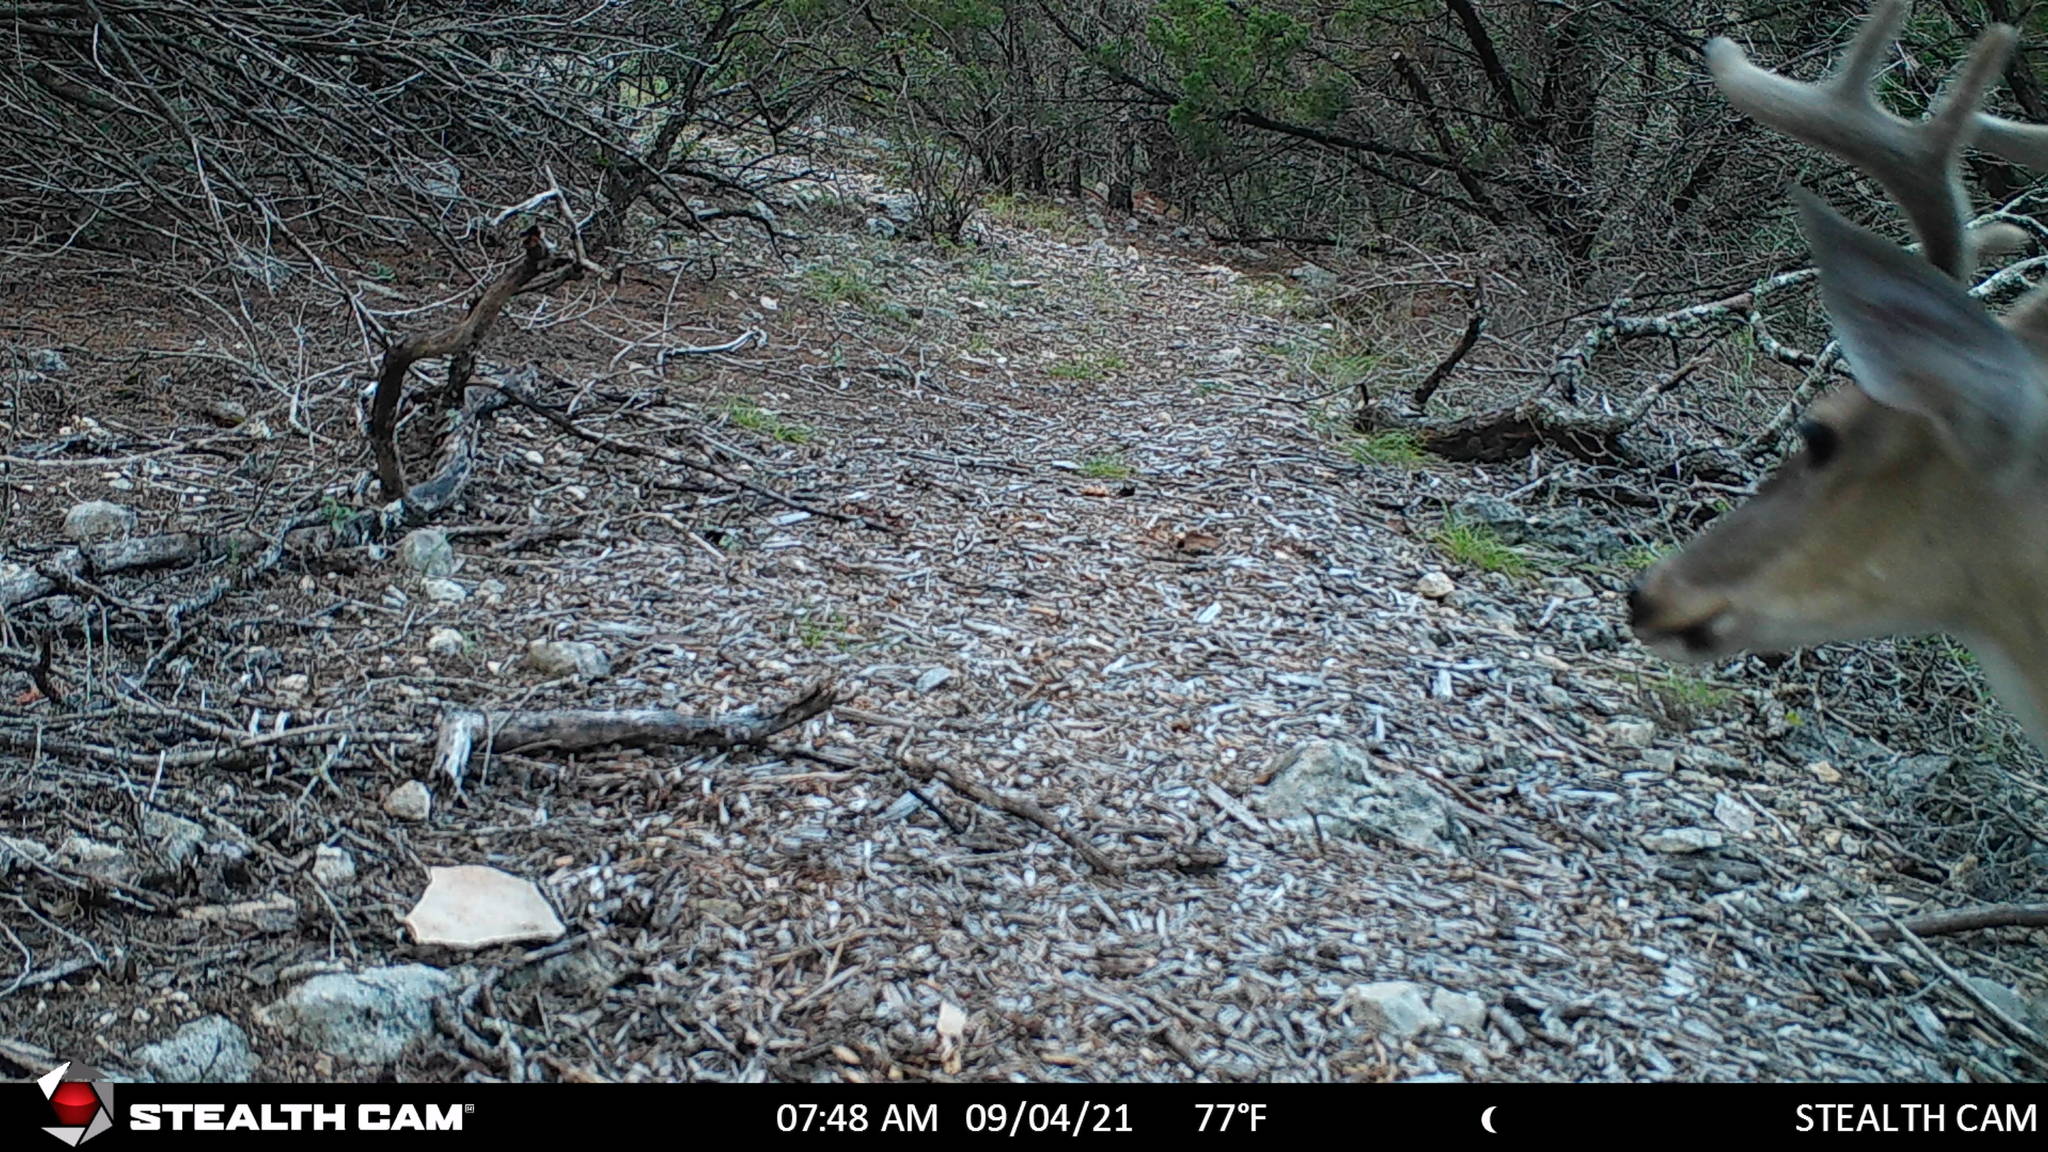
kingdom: Animalia
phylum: Chordata
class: Mammalia
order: Artiodactyla
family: Cervidae
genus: Odocoileus
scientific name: Odocoileus virginianus
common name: White-tailed deer
